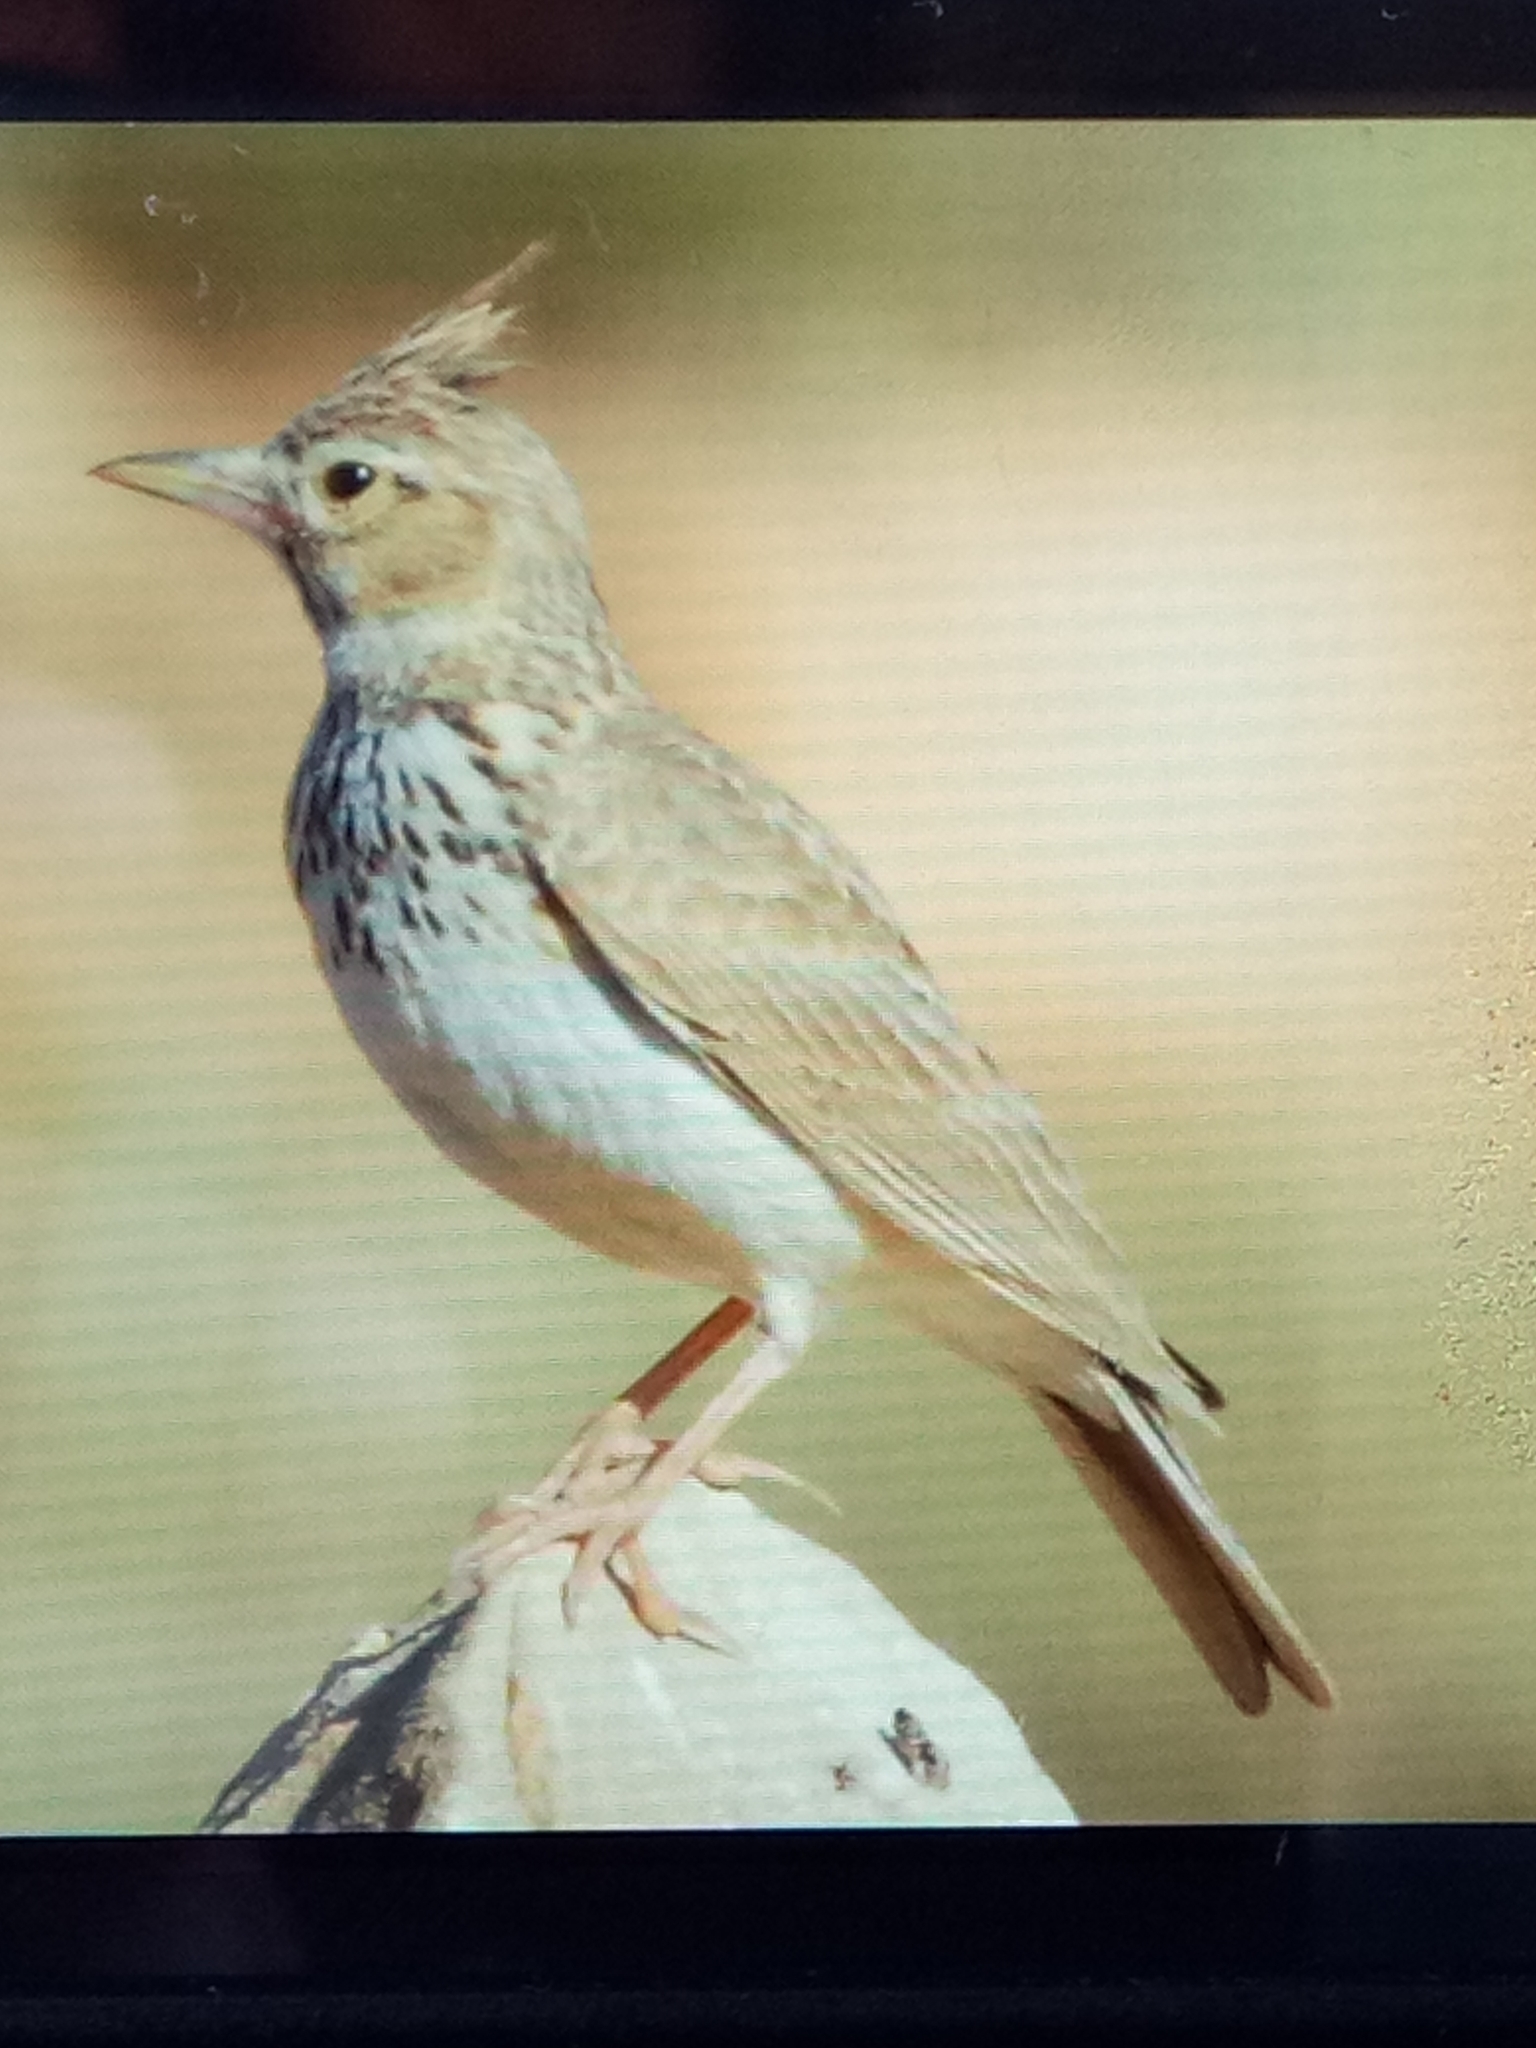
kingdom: Animalia
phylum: Chordata
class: Aves
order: Passeriformes
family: Alaudidae
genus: Galerida
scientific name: Galerida cristata
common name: Crested lark
